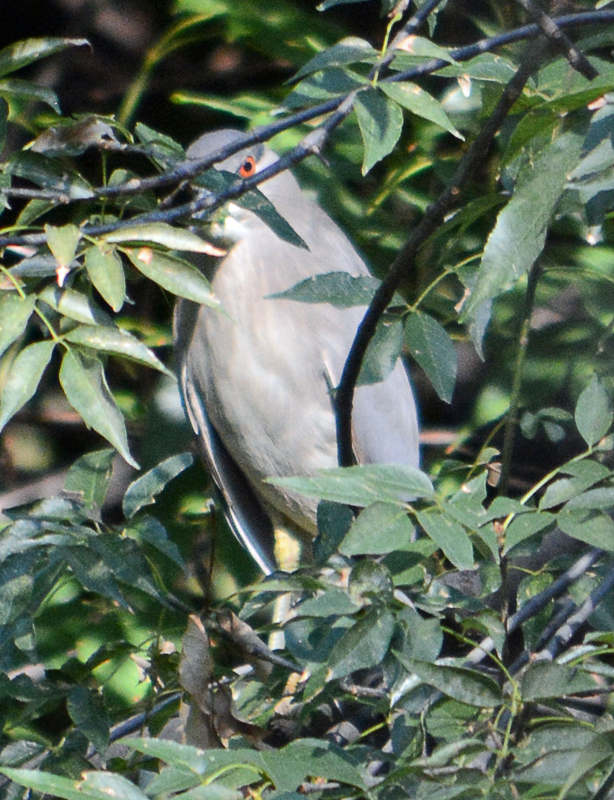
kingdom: Animalia
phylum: Chordata
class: Aves
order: Pelecaniformes
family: Ardeidae
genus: Nycticorax
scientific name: Nycticorax nycticorax
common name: Black-crowned night heron
